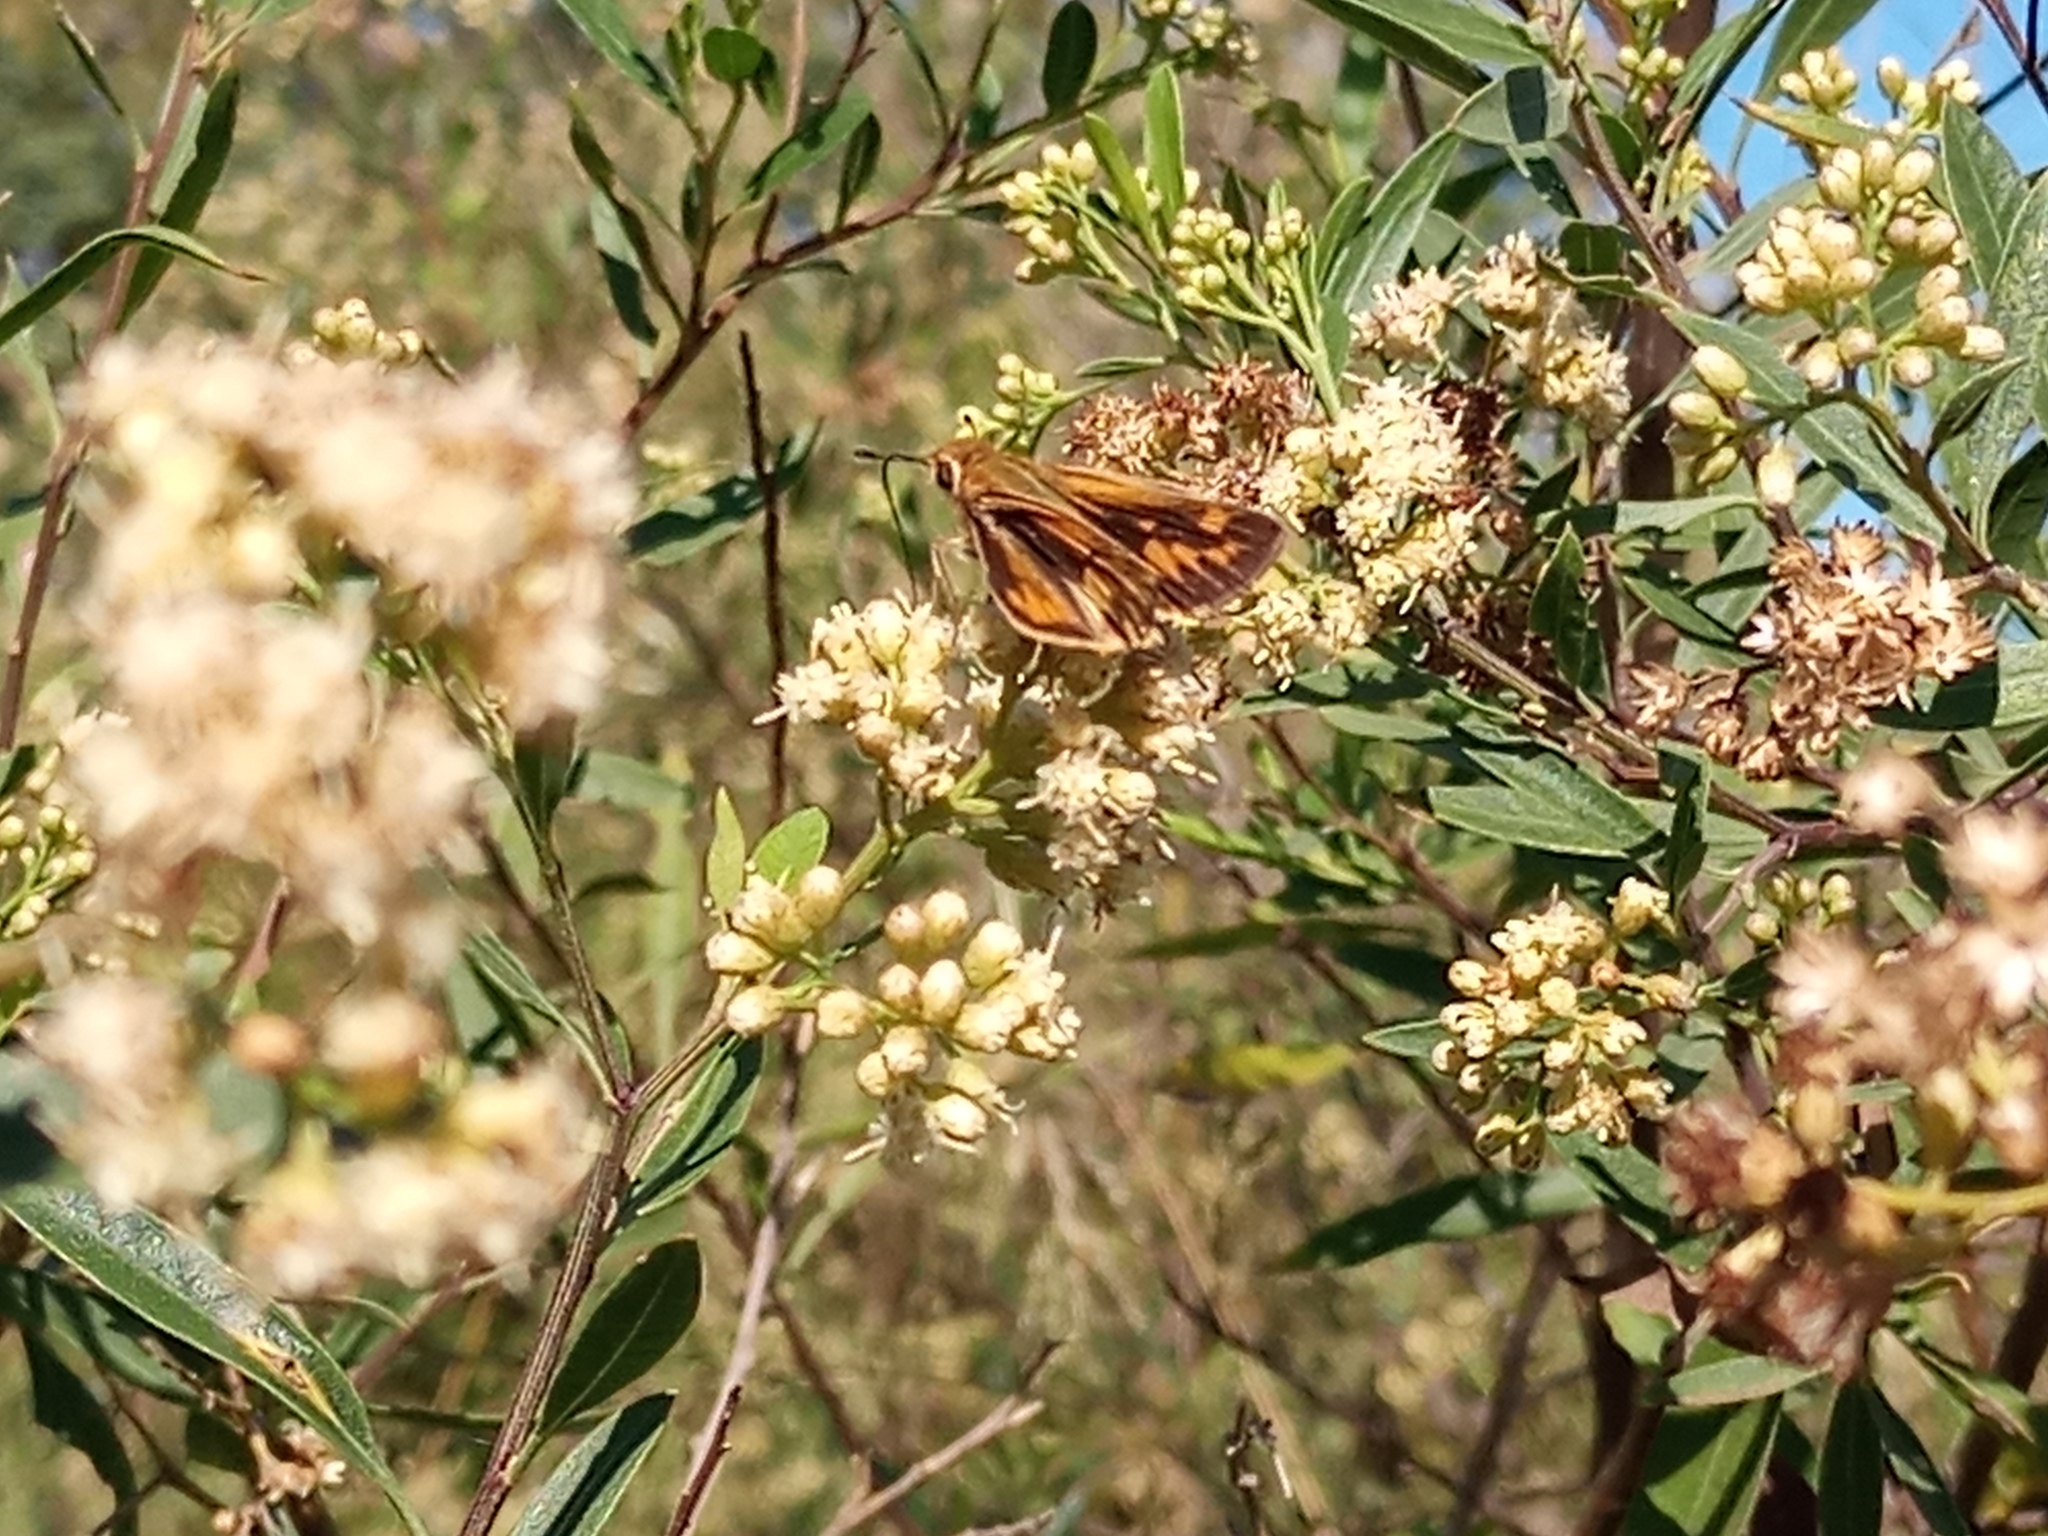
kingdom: Animalia
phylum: Arthropoda
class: Insecta
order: Lepidoptera
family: Hesperiidae
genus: Hylephila
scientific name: Hylephila phyleus
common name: Fiery skipper
